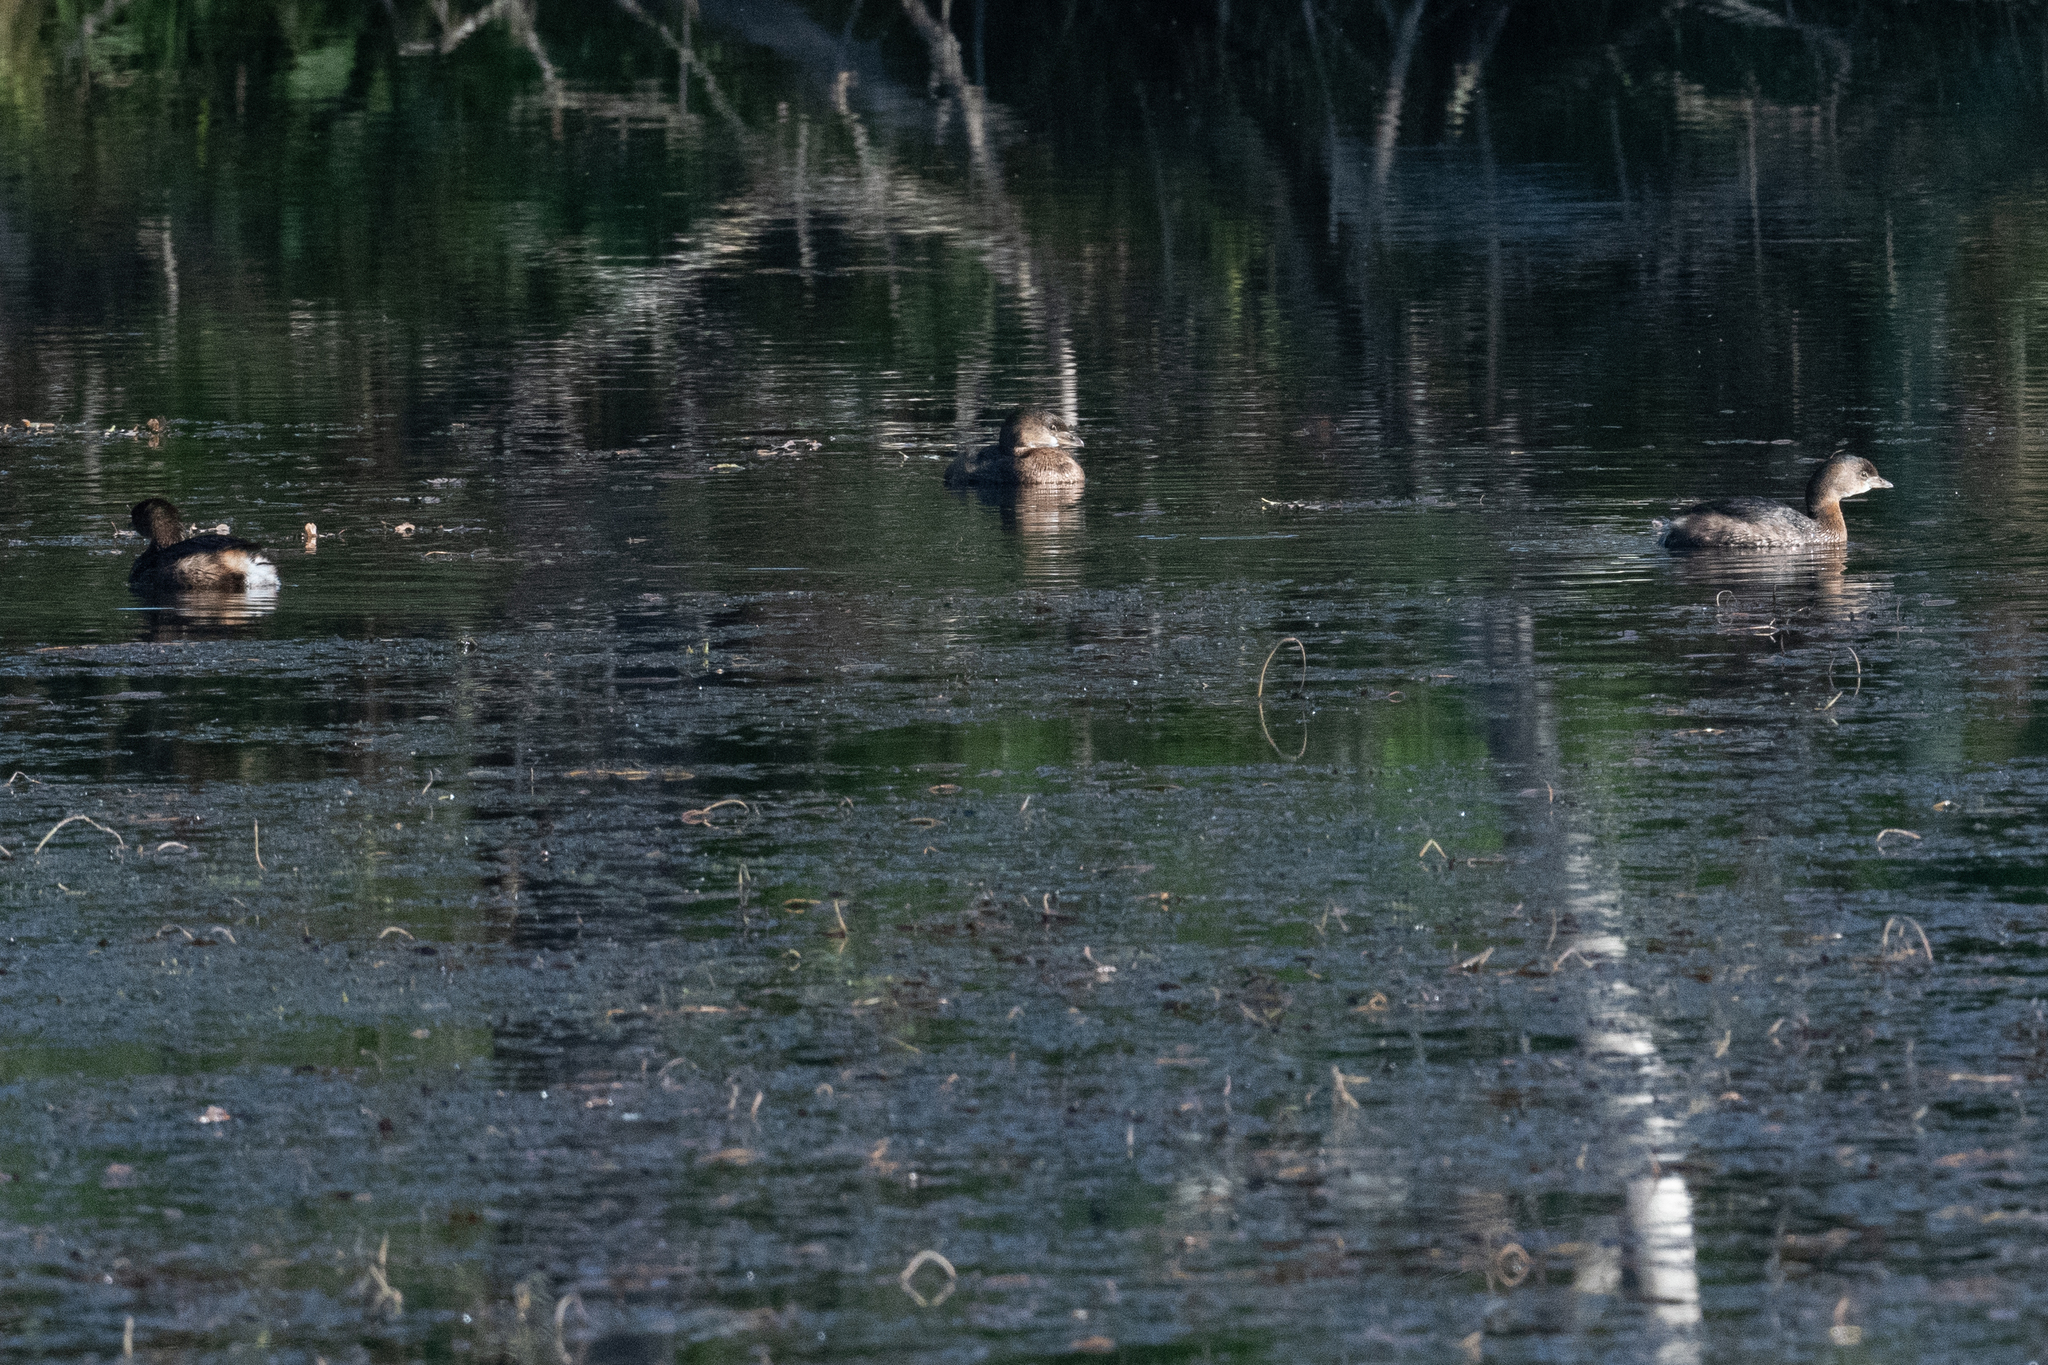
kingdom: Animalia
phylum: Chordata
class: Aves
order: Podicipediformes
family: Podicipedidae
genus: Podilymbus
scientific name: Podilymbus podiceps
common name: Pied-billed grebe
